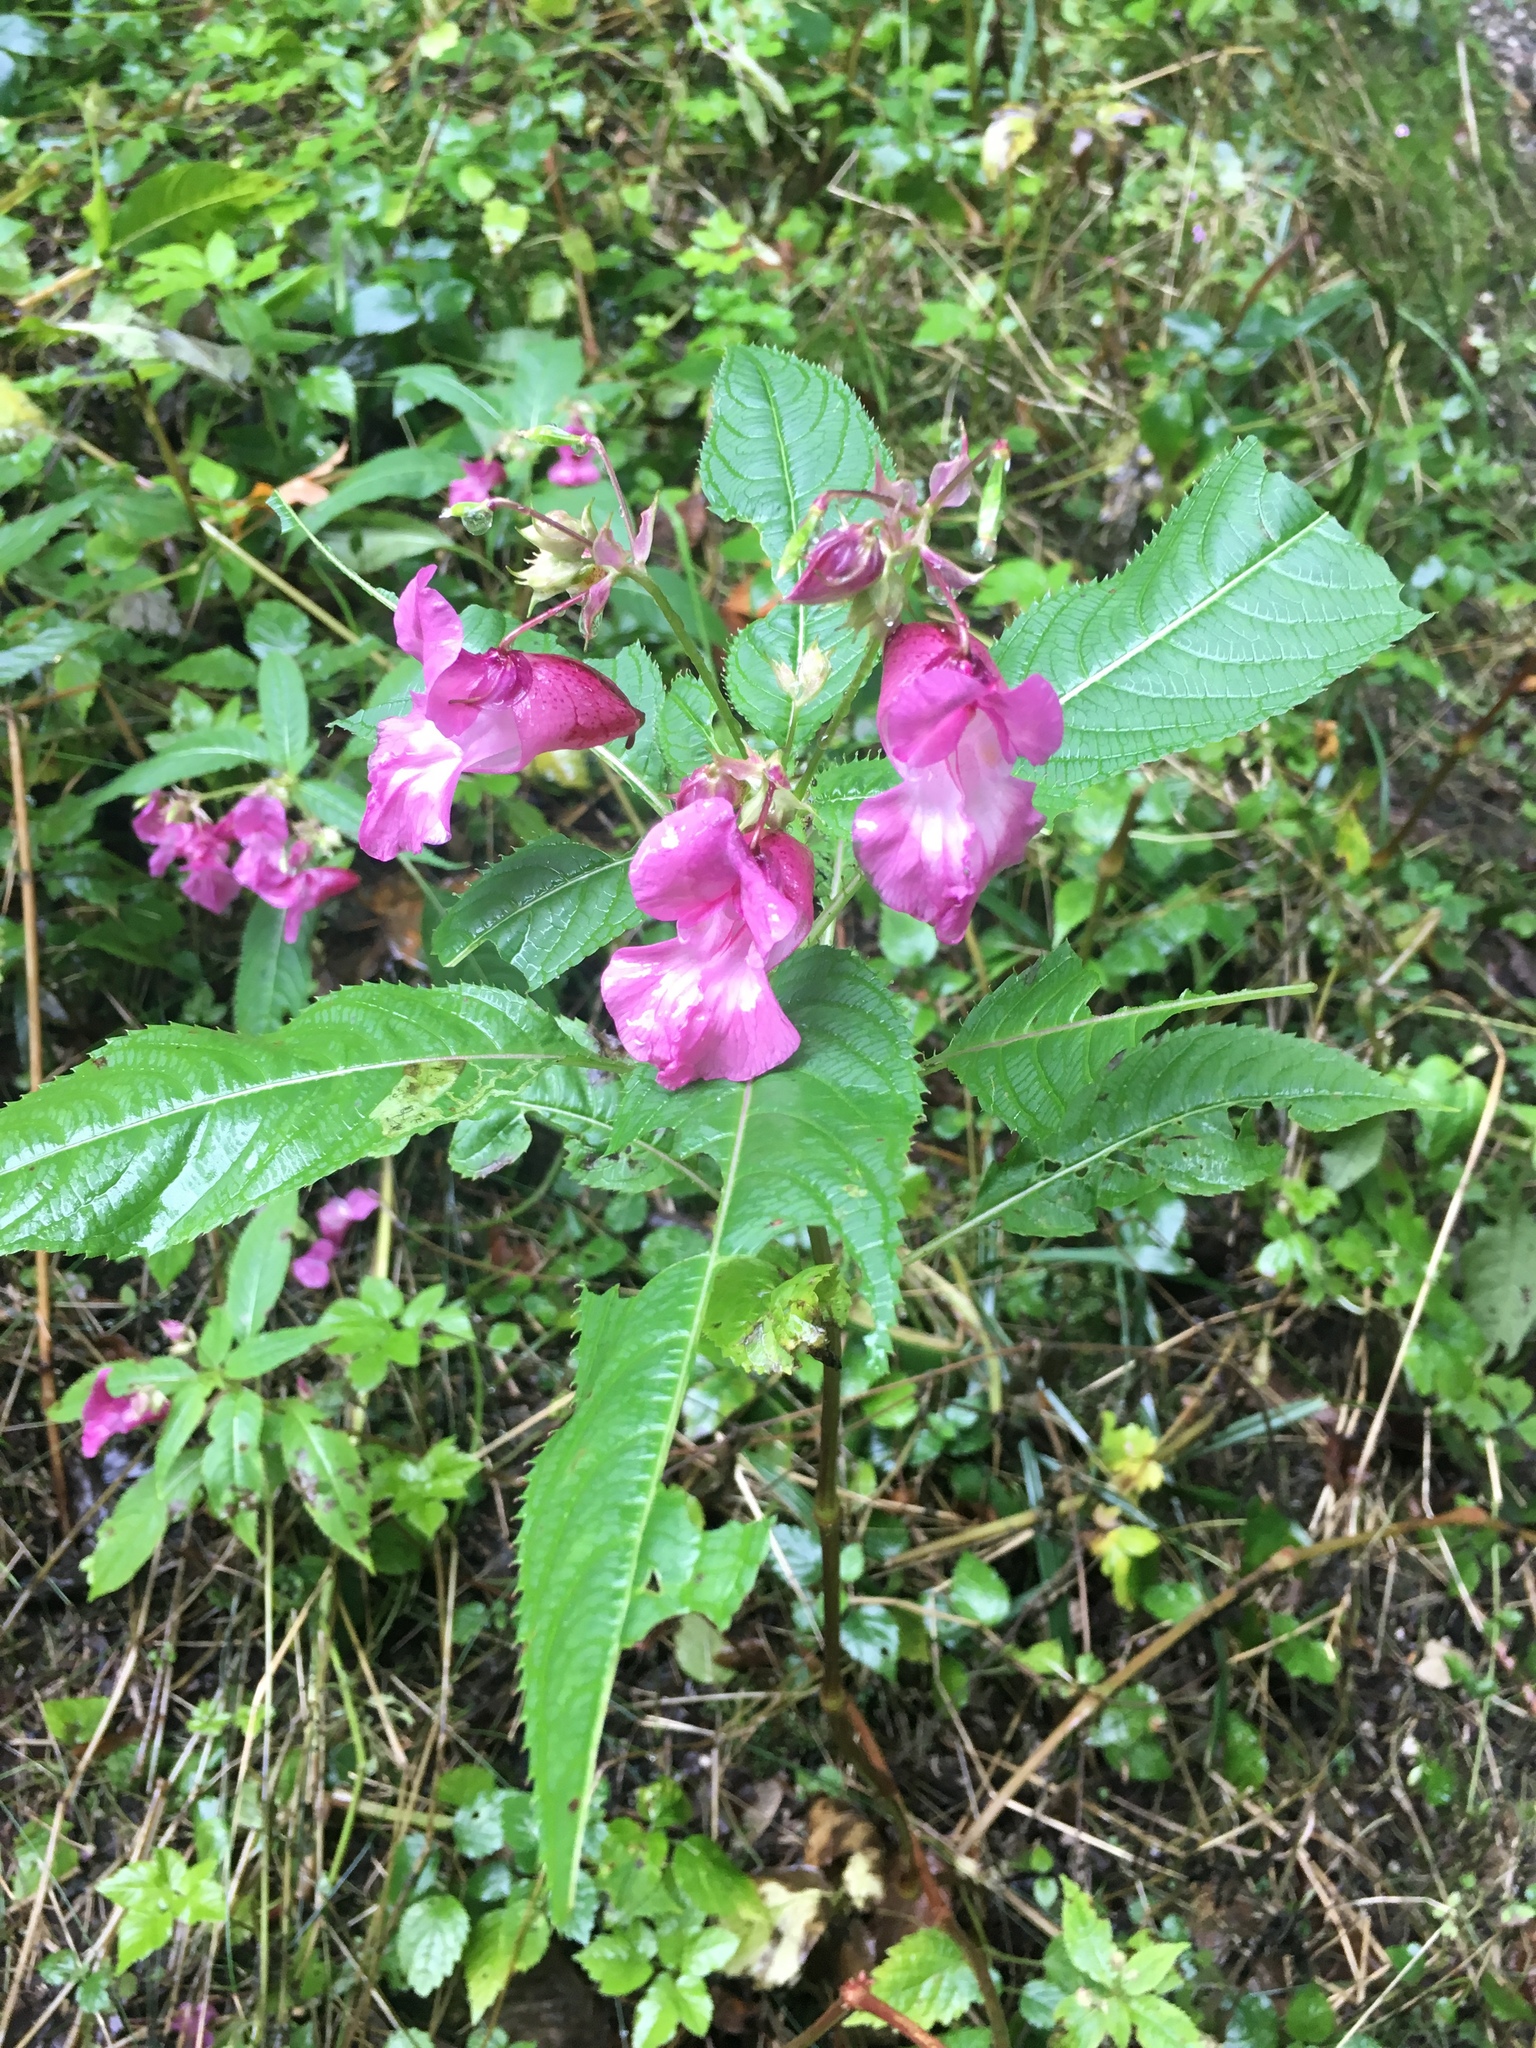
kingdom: Plantae
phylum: Tracheophyta
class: Magnoliopsida
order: Ericales
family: Balsaminaceae
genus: Impatiens
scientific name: Impatiens glandulifera
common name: Himalayan balsam
